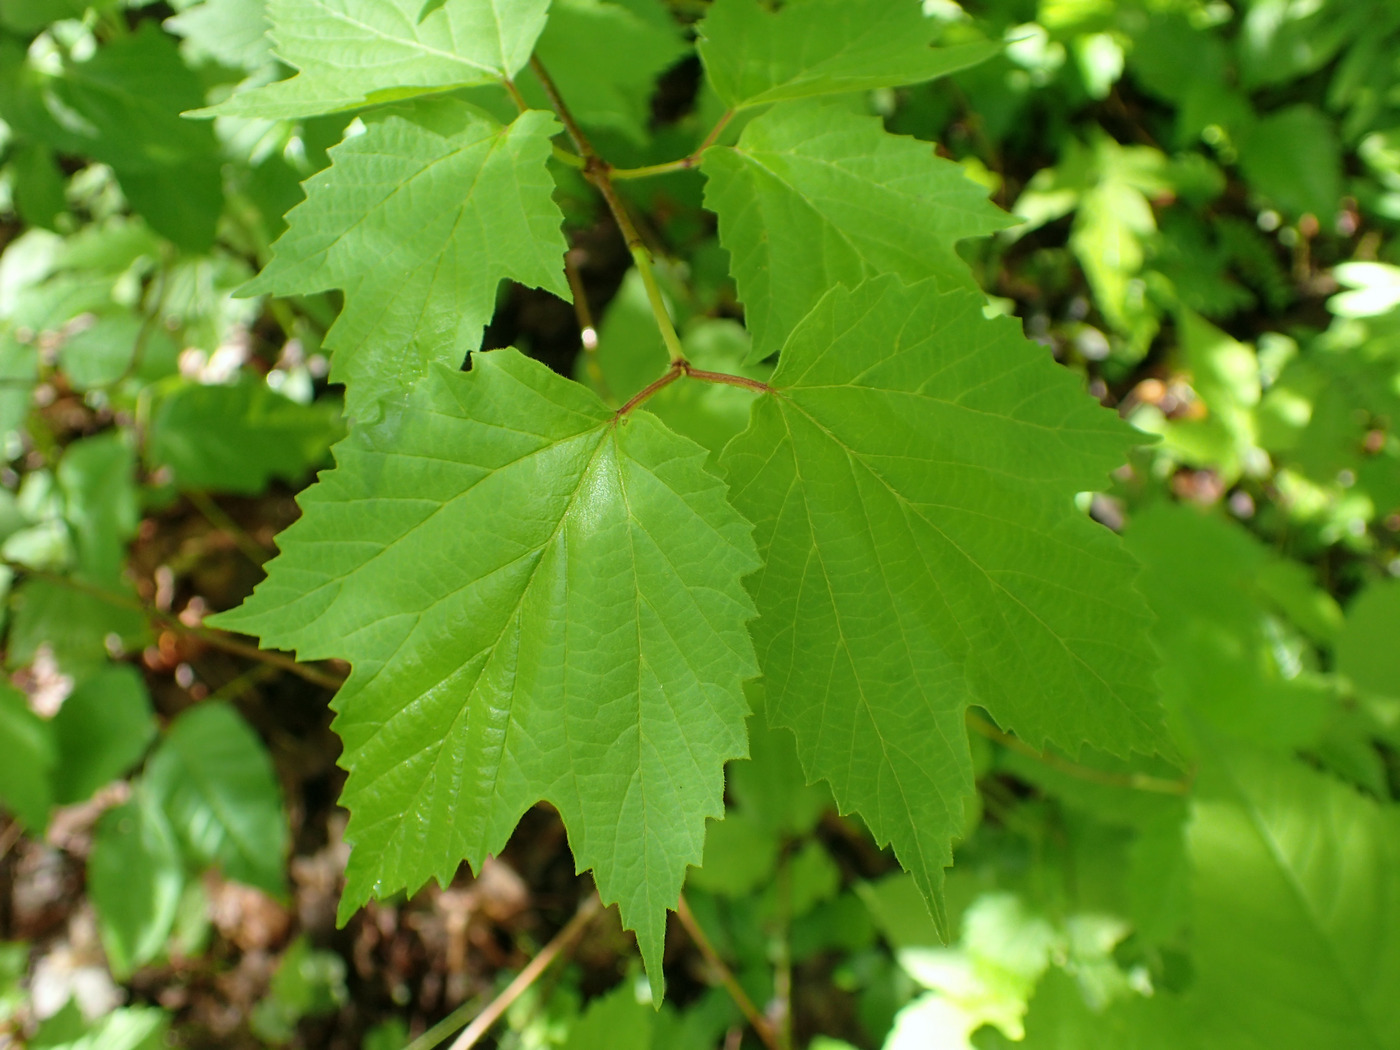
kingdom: Plantae
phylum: Tracheophyta
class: Magnoliopsida
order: Dipsacales
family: Viburnaceae
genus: Viburnum
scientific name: Viburnum acerifolium
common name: Dockmackie
